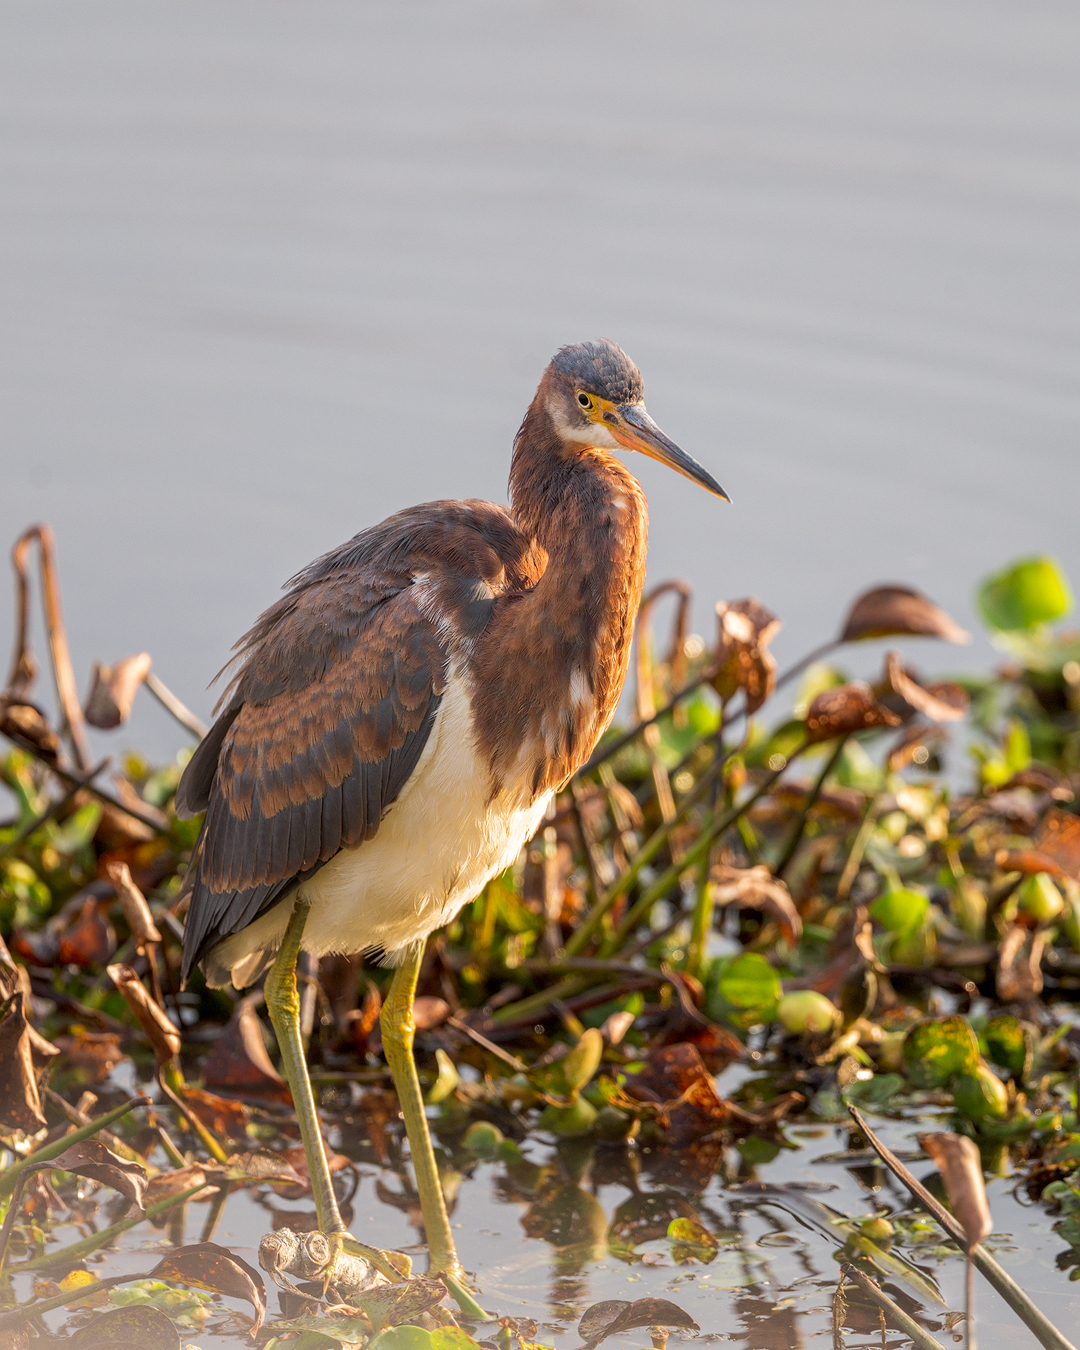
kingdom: Animalia
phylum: Chordata
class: Aves
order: Pelecaniformes
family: Ardeidae
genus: Egretta
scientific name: Egretta tricolor
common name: Tricolored heron
